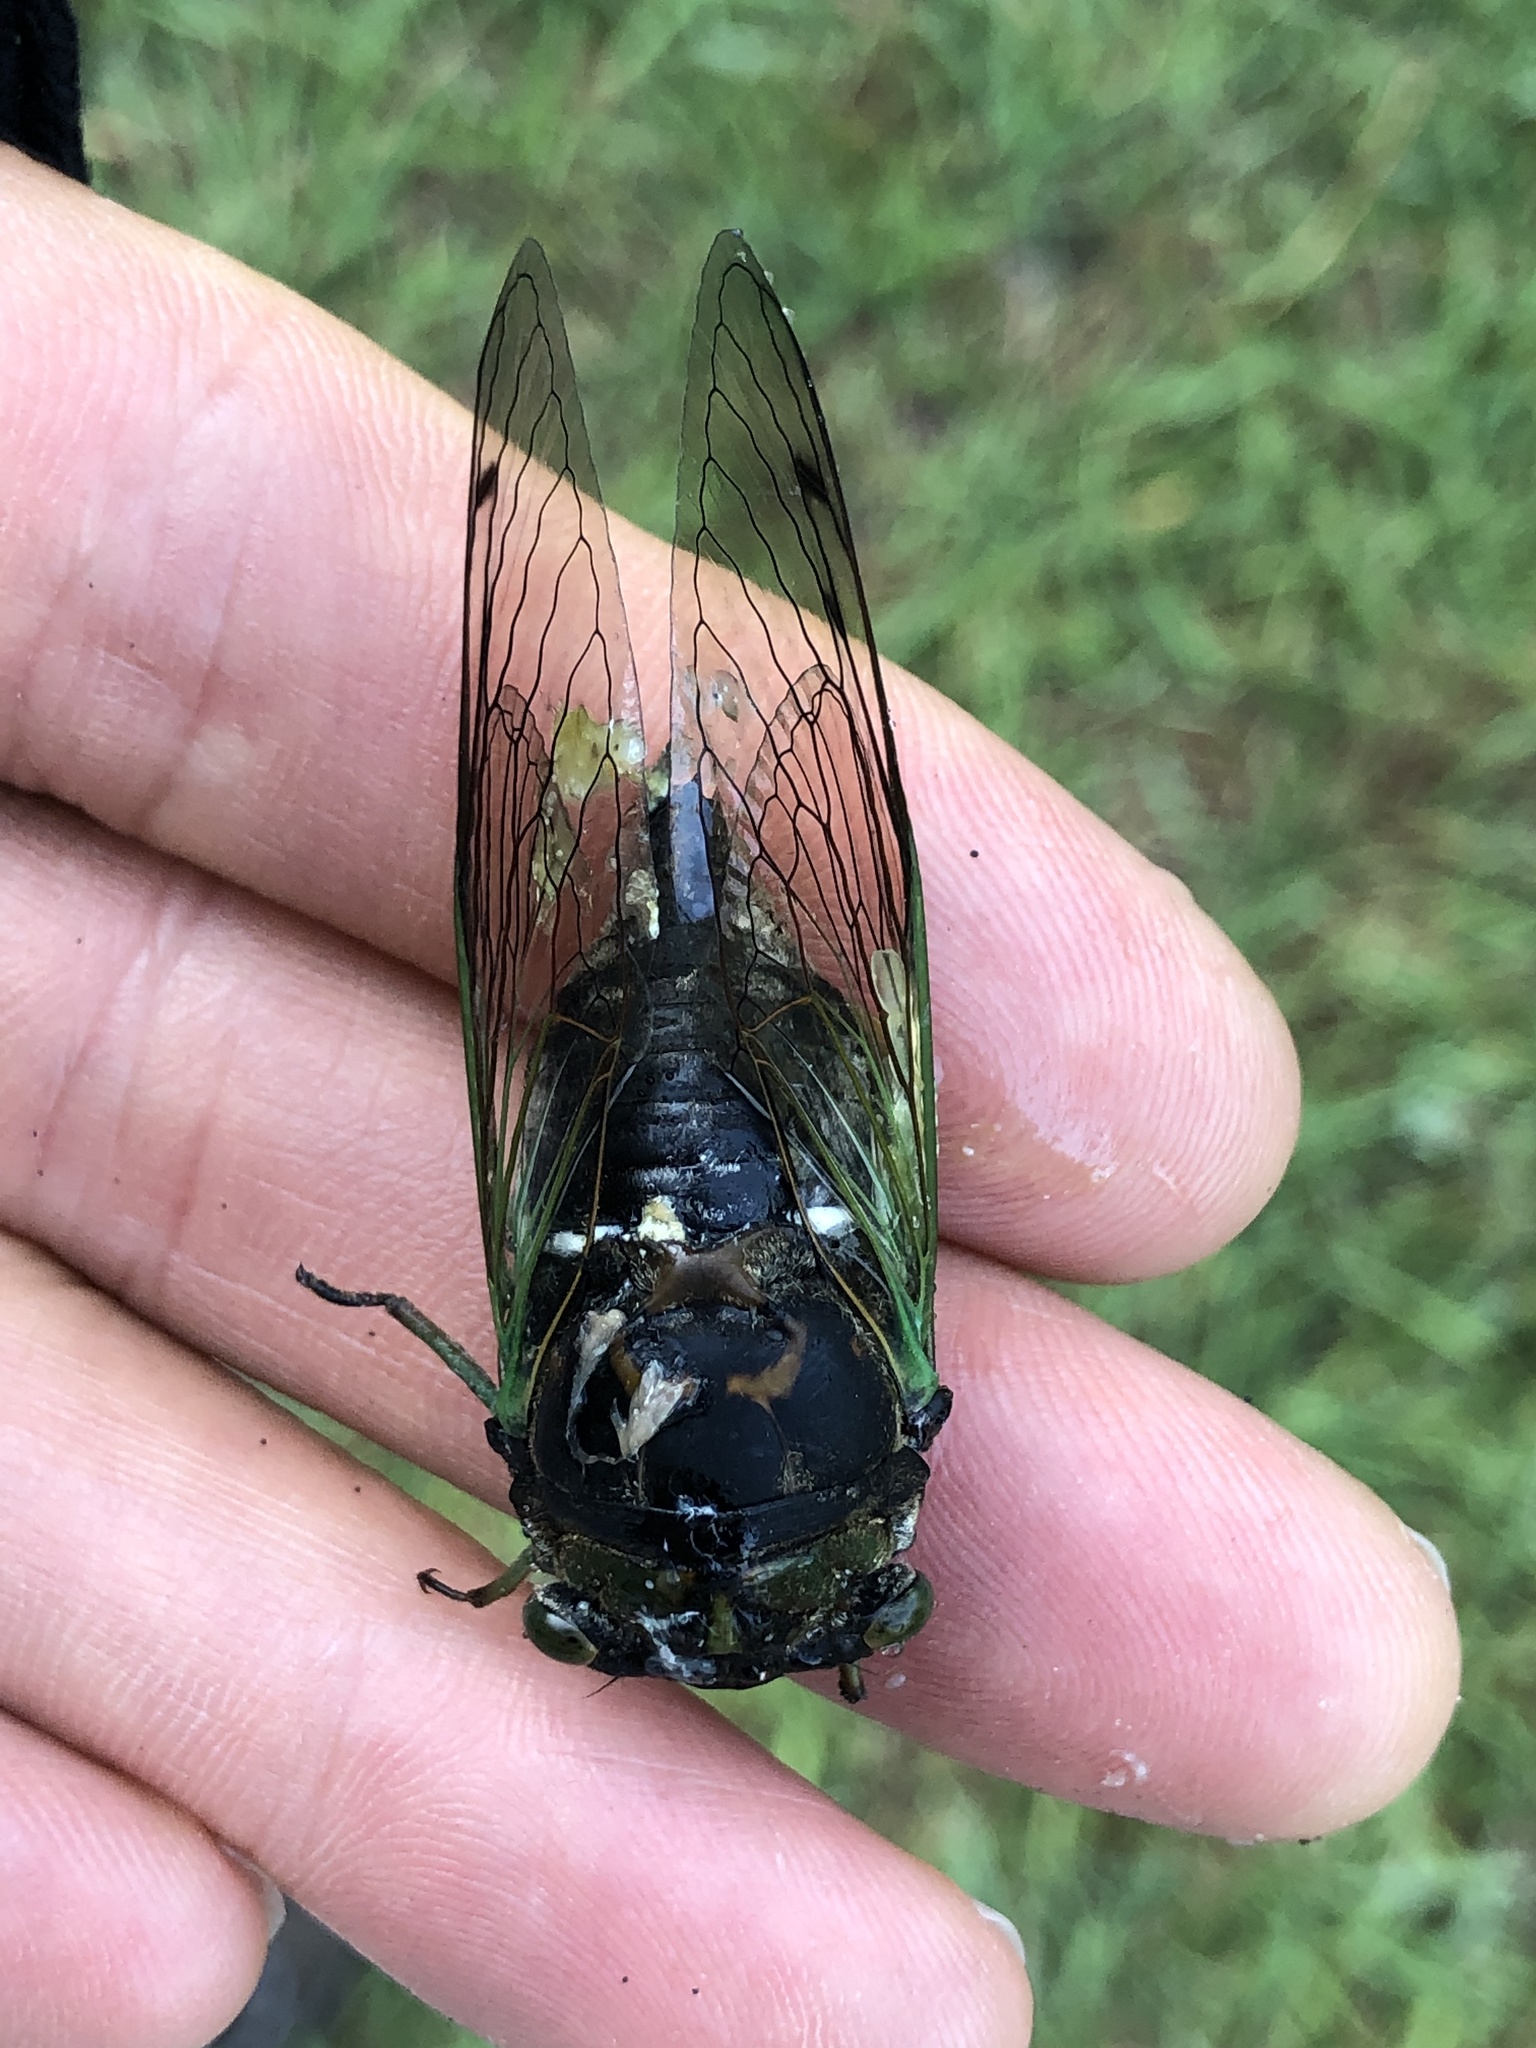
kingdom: Animalia
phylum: Arthropoda
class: Insecta
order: Hemiptera
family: Cicadidae
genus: Neotibicen
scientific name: Neotibicen tibicen
